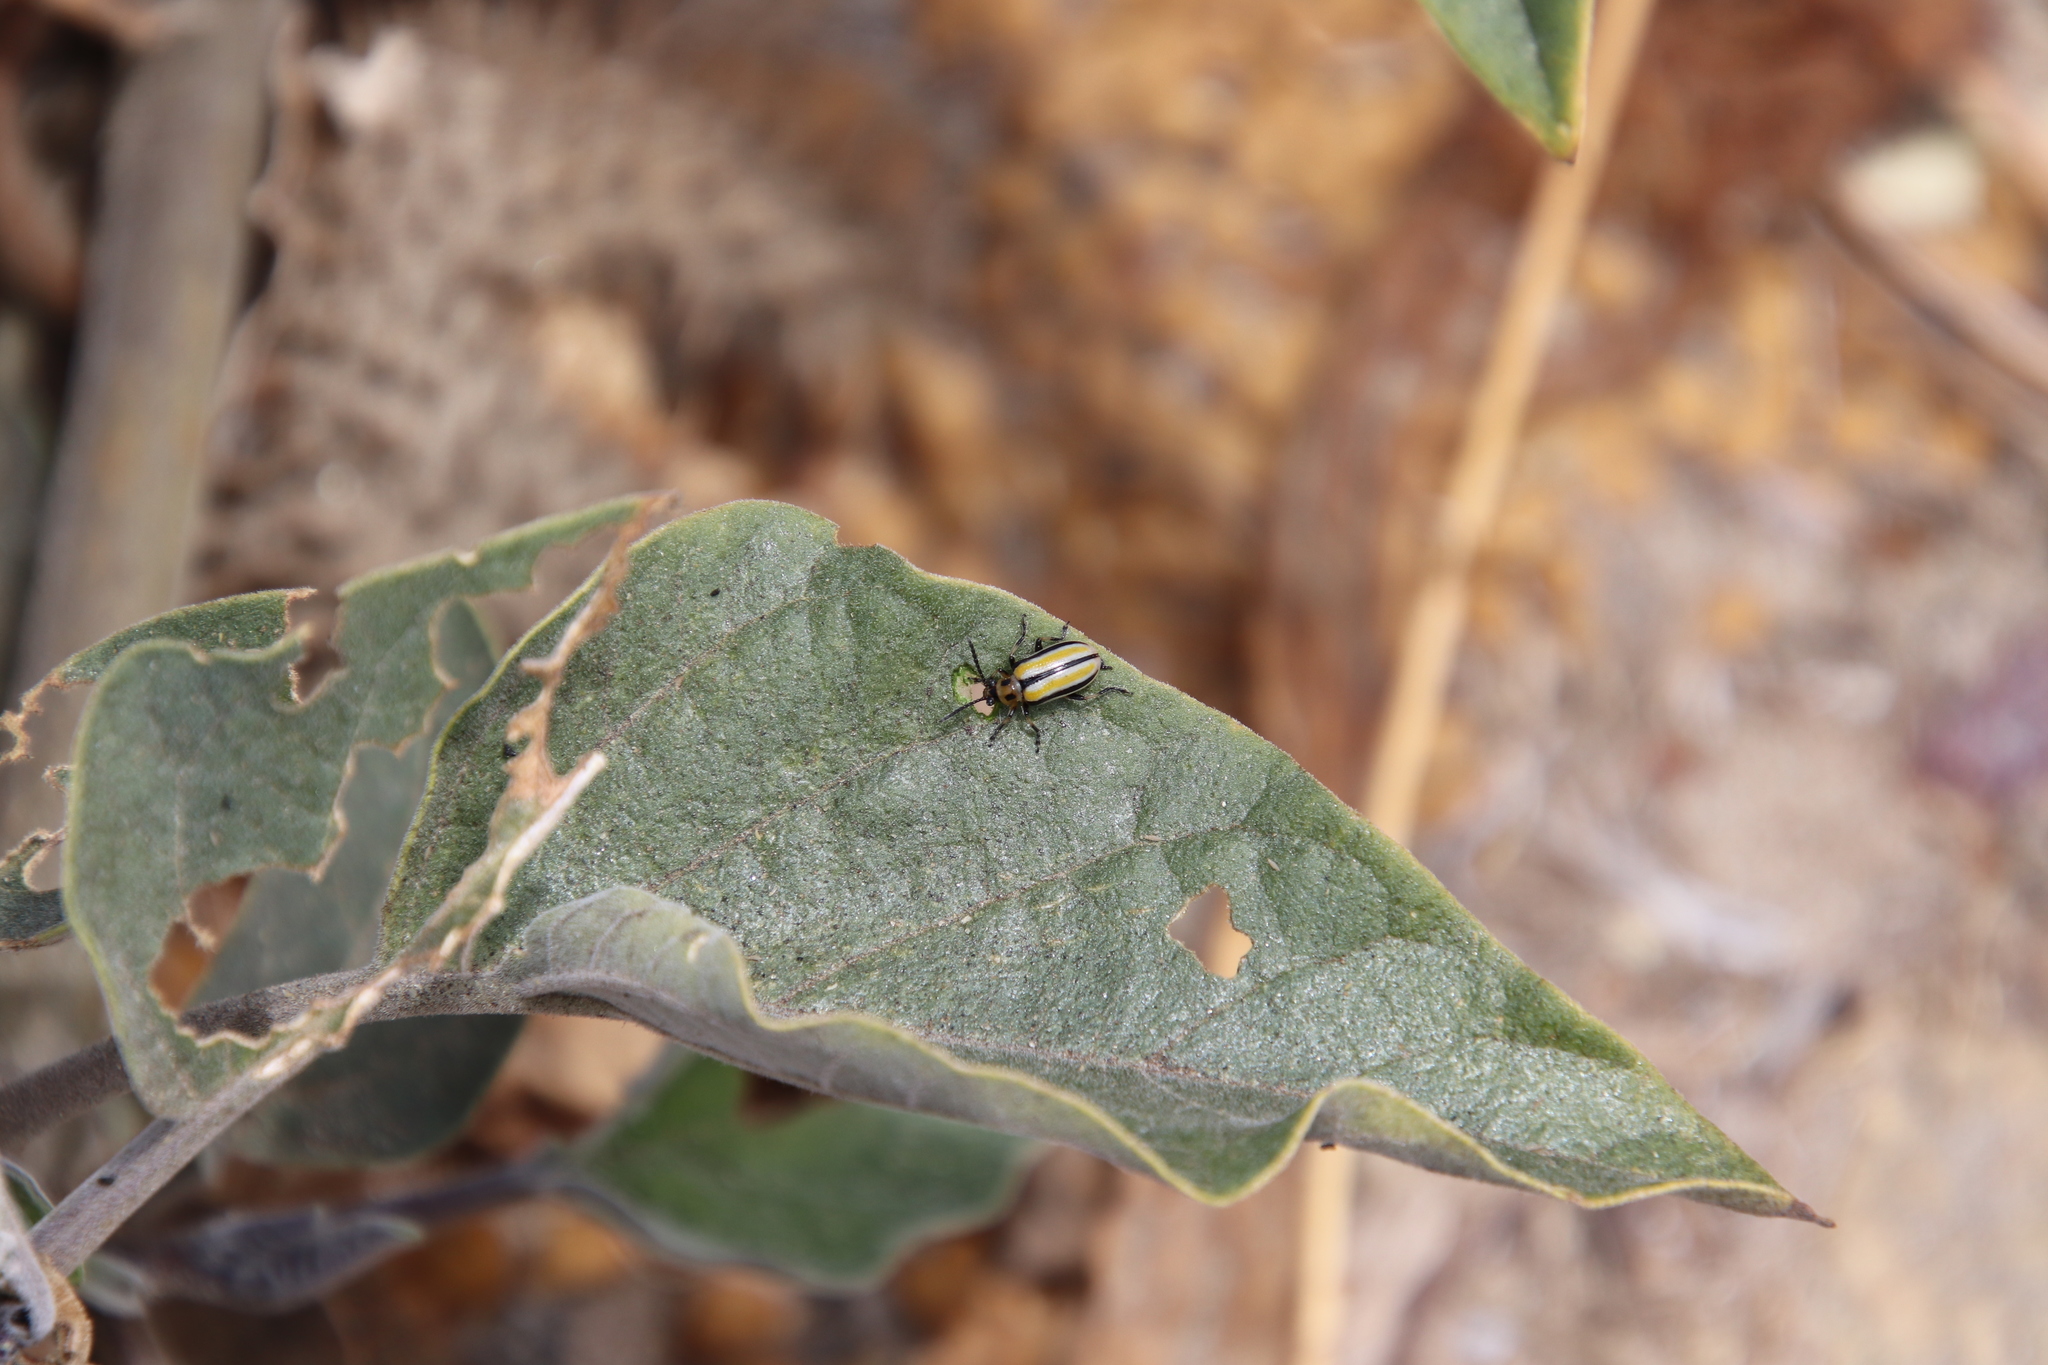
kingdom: Animalia
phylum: Arthropoda
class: Insecta
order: Coleoptera
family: Chrysomelidae
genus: Lema
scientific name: Lema daturaphila
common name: Leaf beetle
